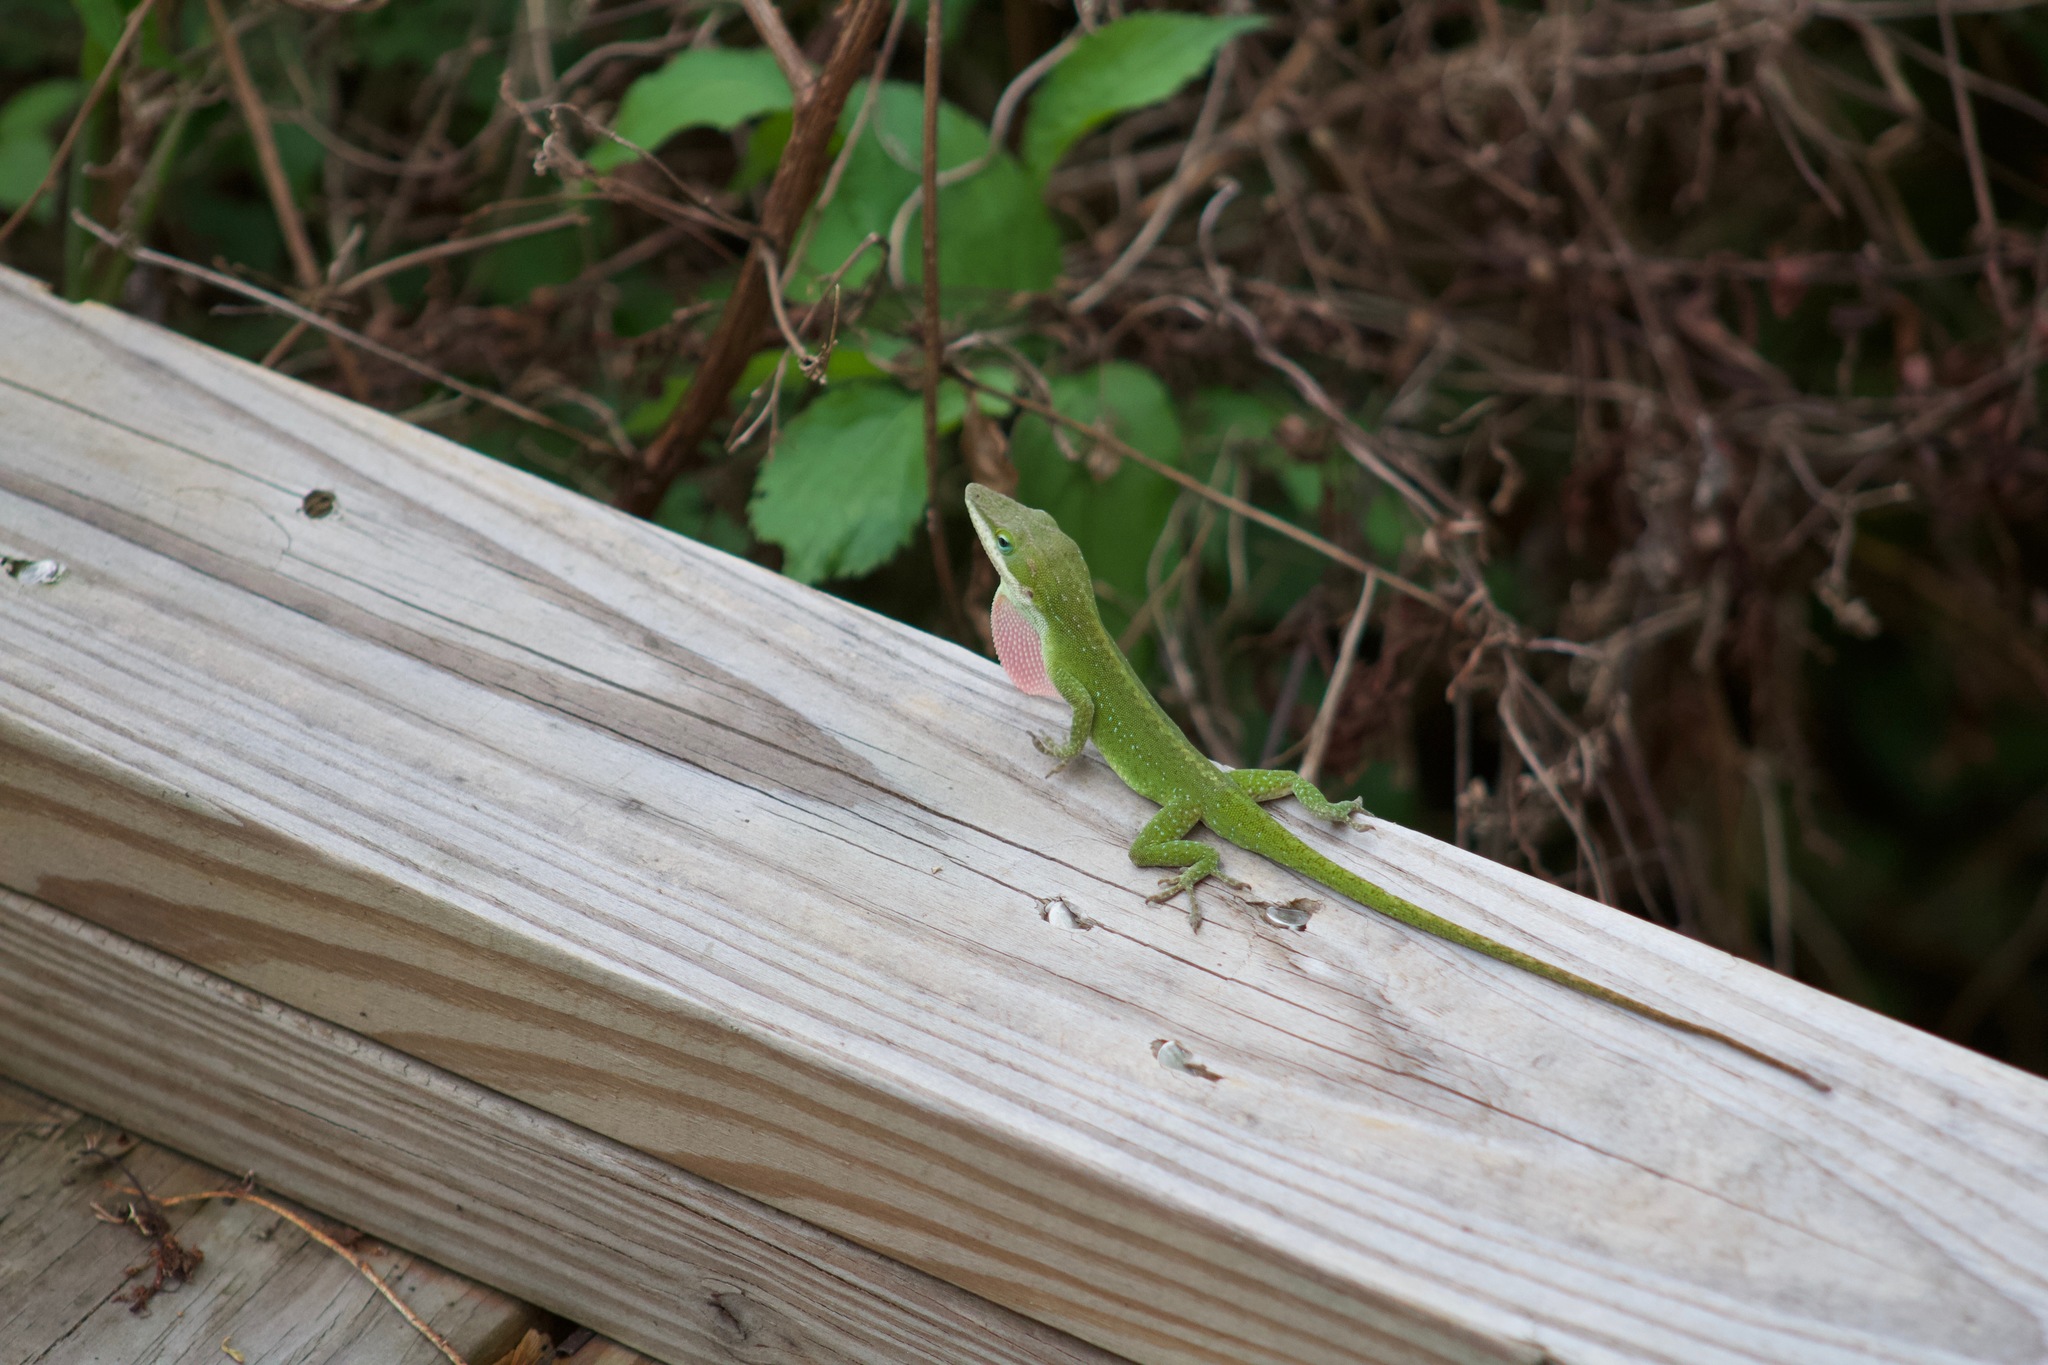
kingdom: Animalia
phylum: Chordata
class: Squamata
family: Dactyloidae
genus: Anolis
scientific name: Anolis carolinensis
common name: Green anole
